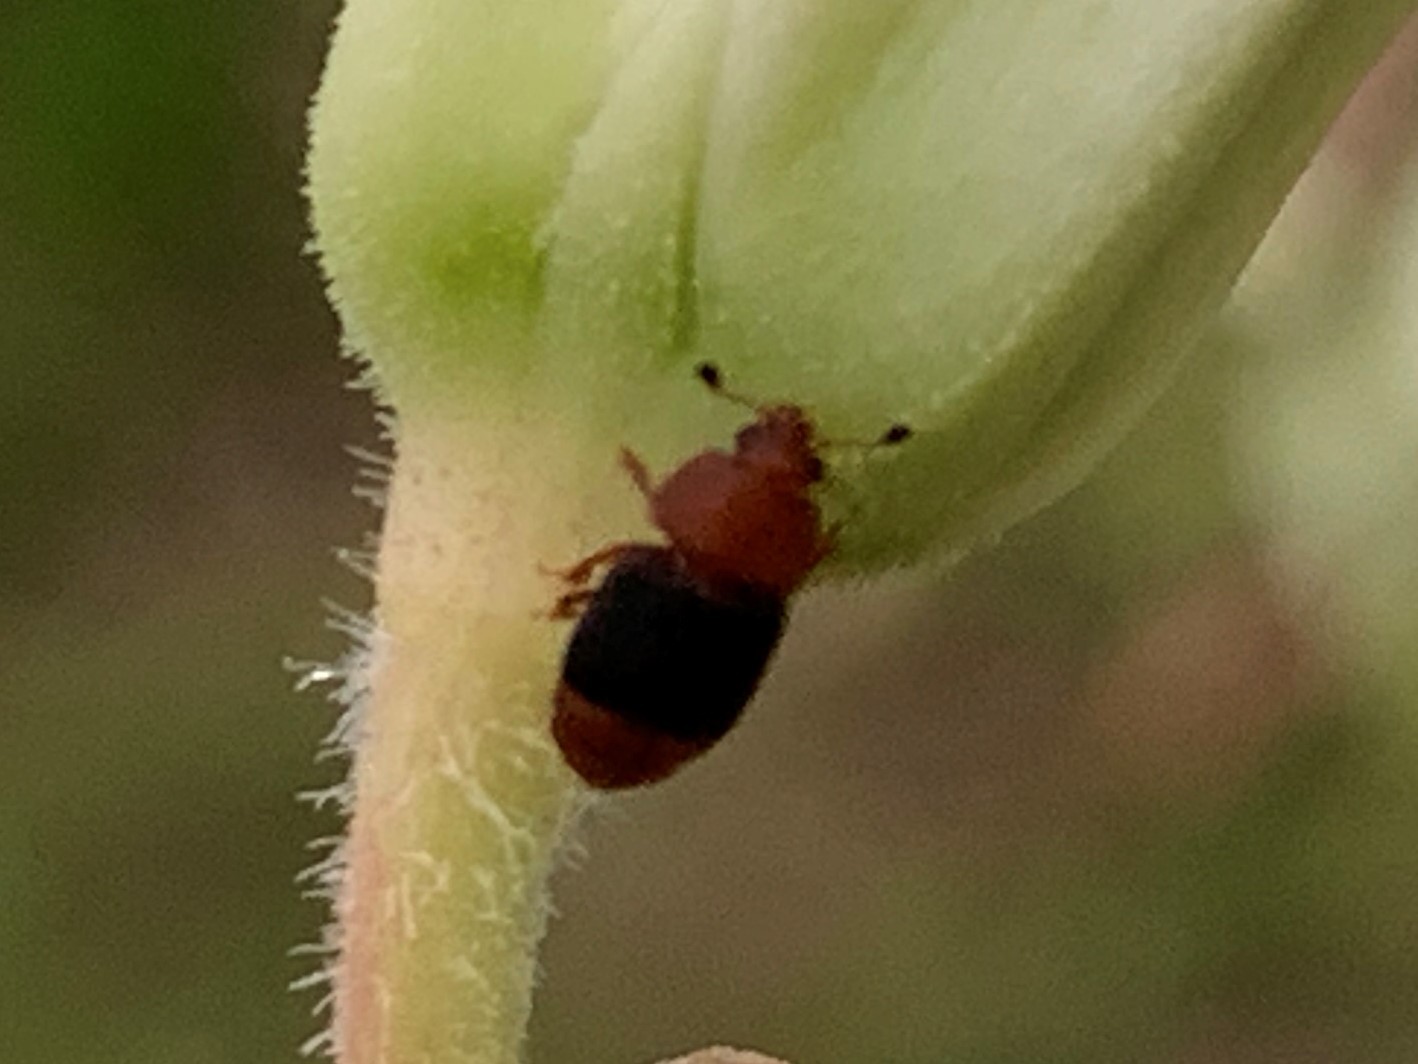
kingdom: Animalia
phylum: Arthropoda
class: Insecta
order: Coleoptera
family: Nitidulidae
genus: Carpophilus
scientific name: Carpophilus
